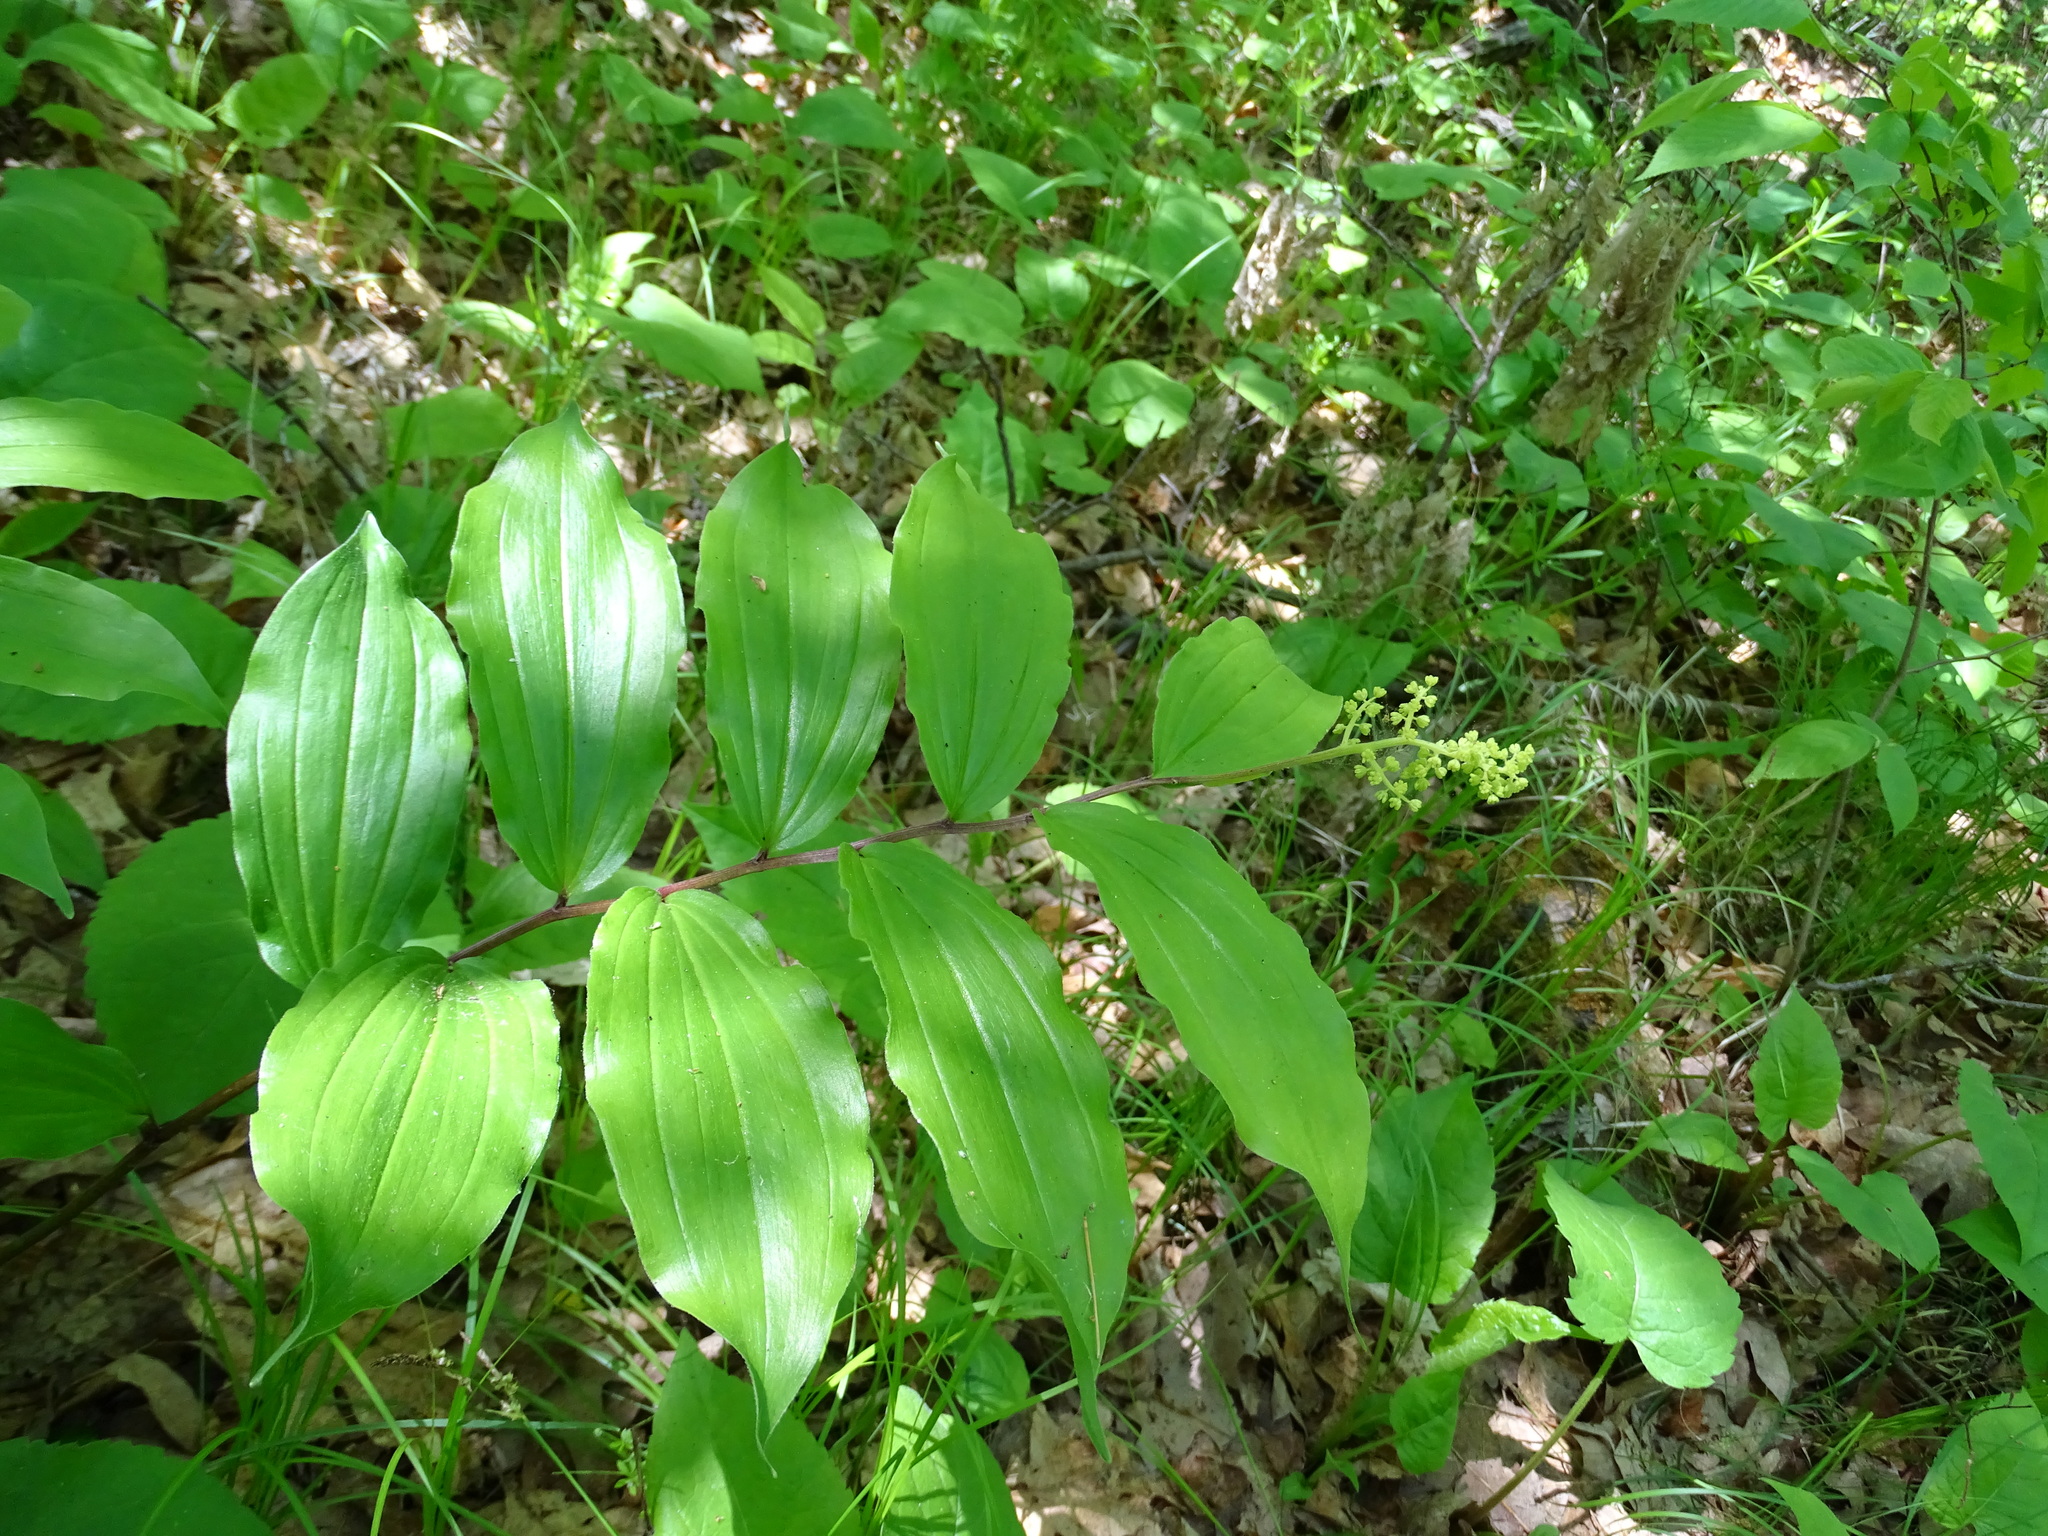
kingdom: Plantae
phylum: Tracheophyta
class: Liliopsida
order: Asparagales
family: Asparagaceae
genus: Maianthemum
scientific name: Maianthemum racemosum
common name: False spikenard
